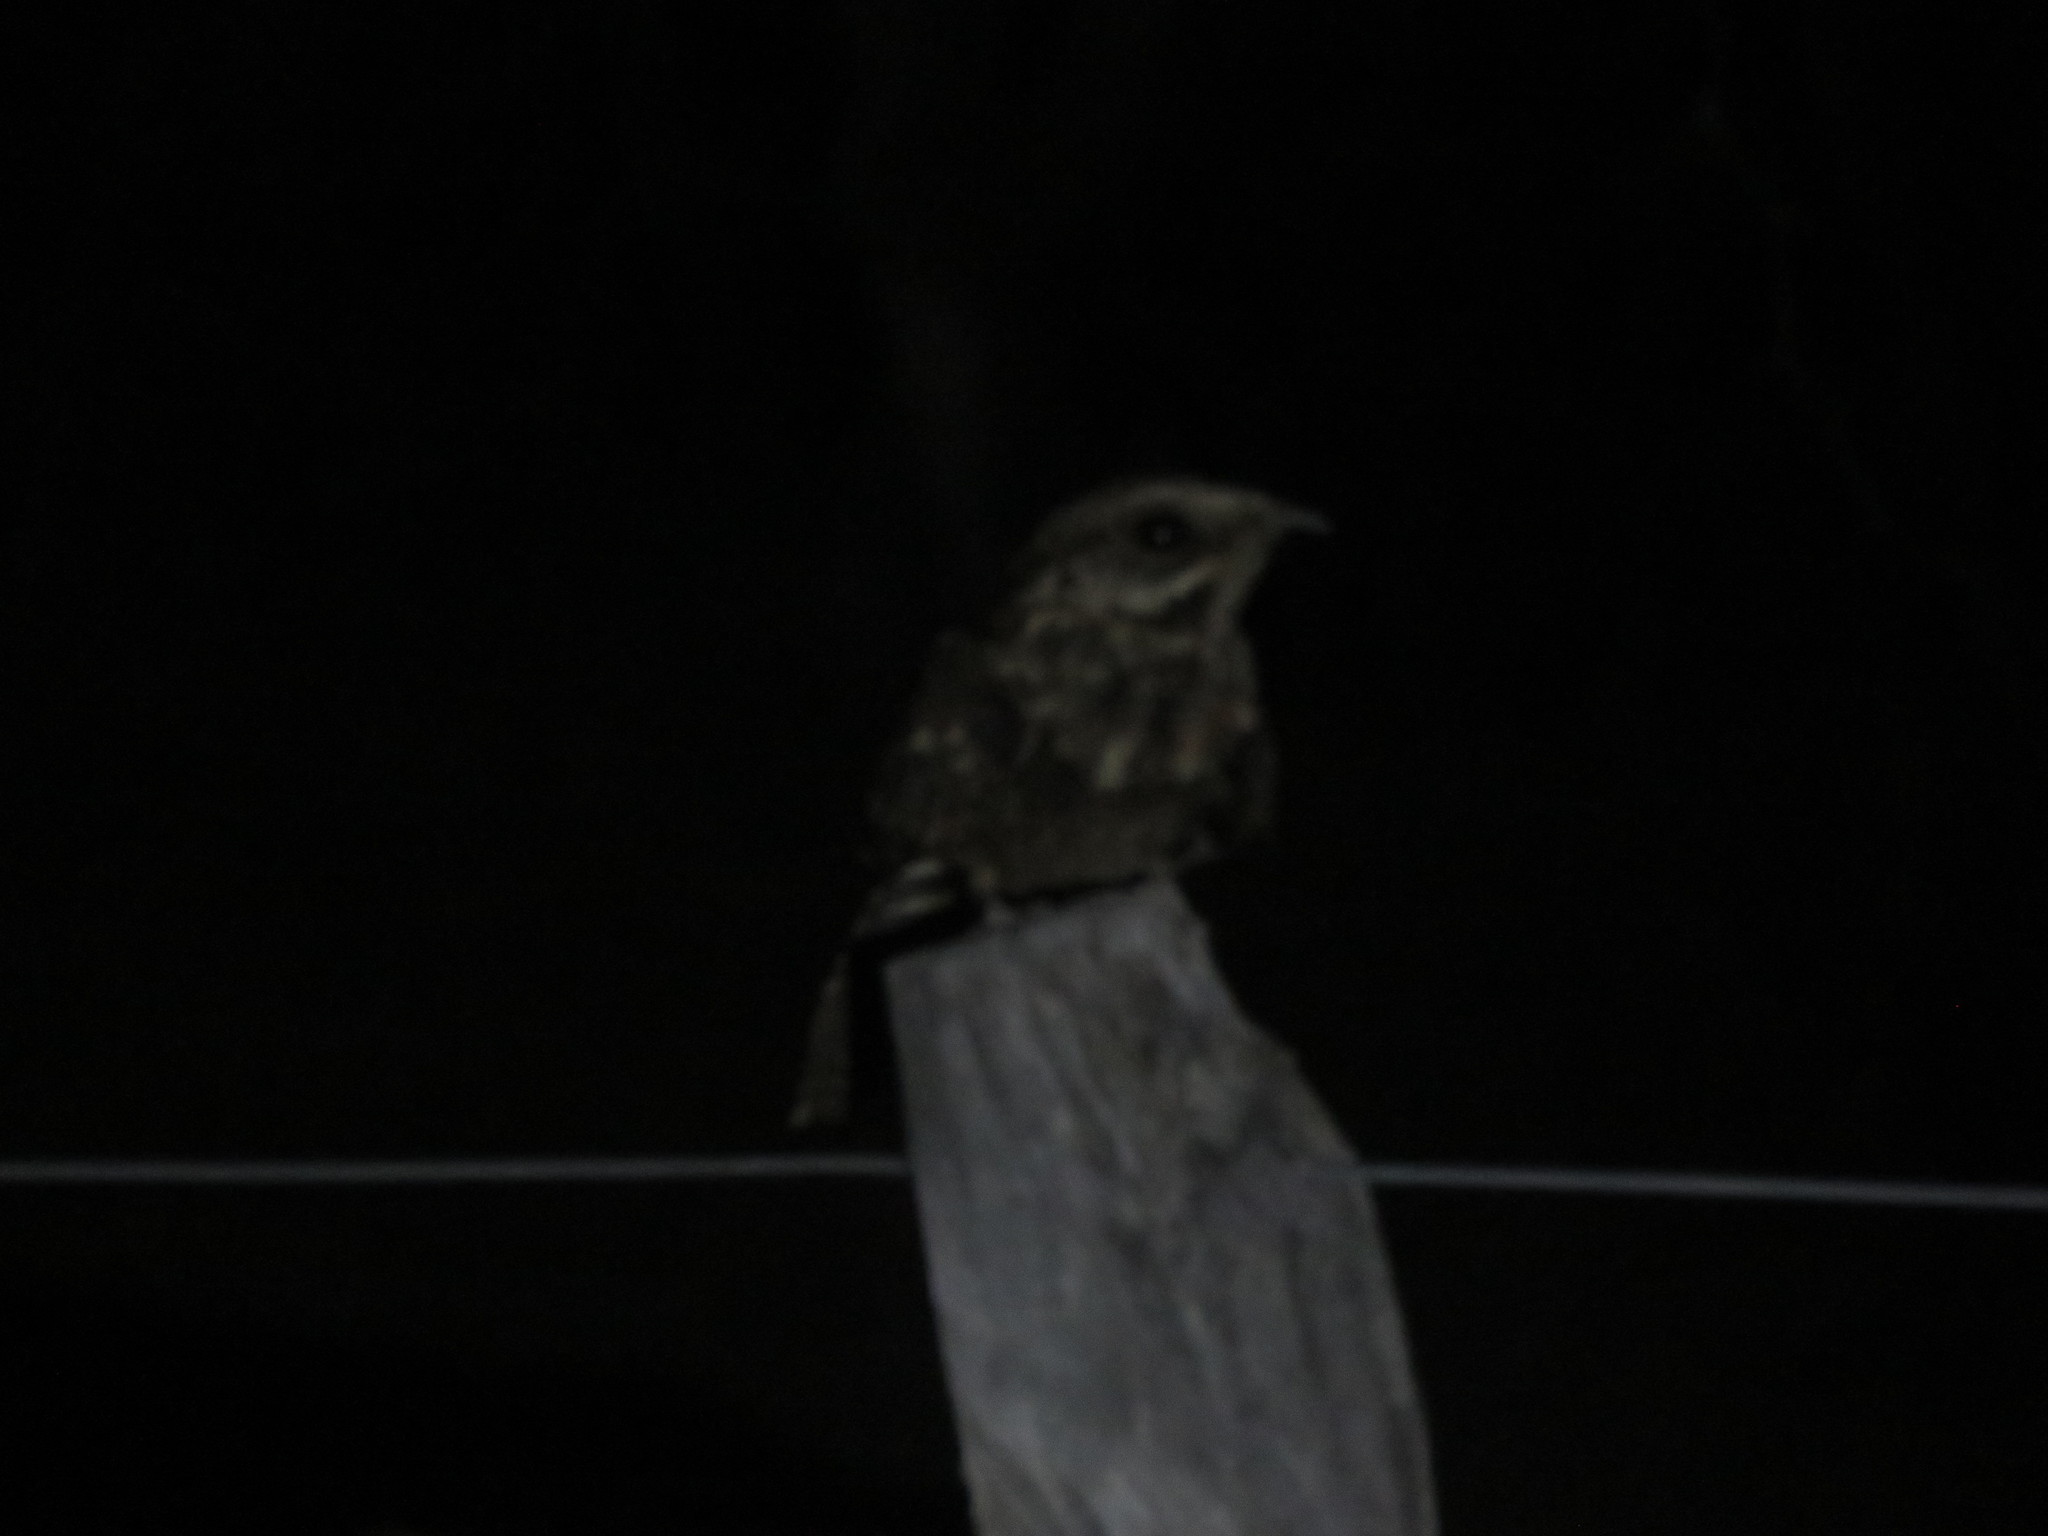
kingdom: Animalia
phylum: Chordata
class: Aves
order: Caprimulgiformes
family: Caprimulgidae
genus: Hydropsalis
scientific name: Hydropsalis torquata
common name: Scissor-tailed nightjar
